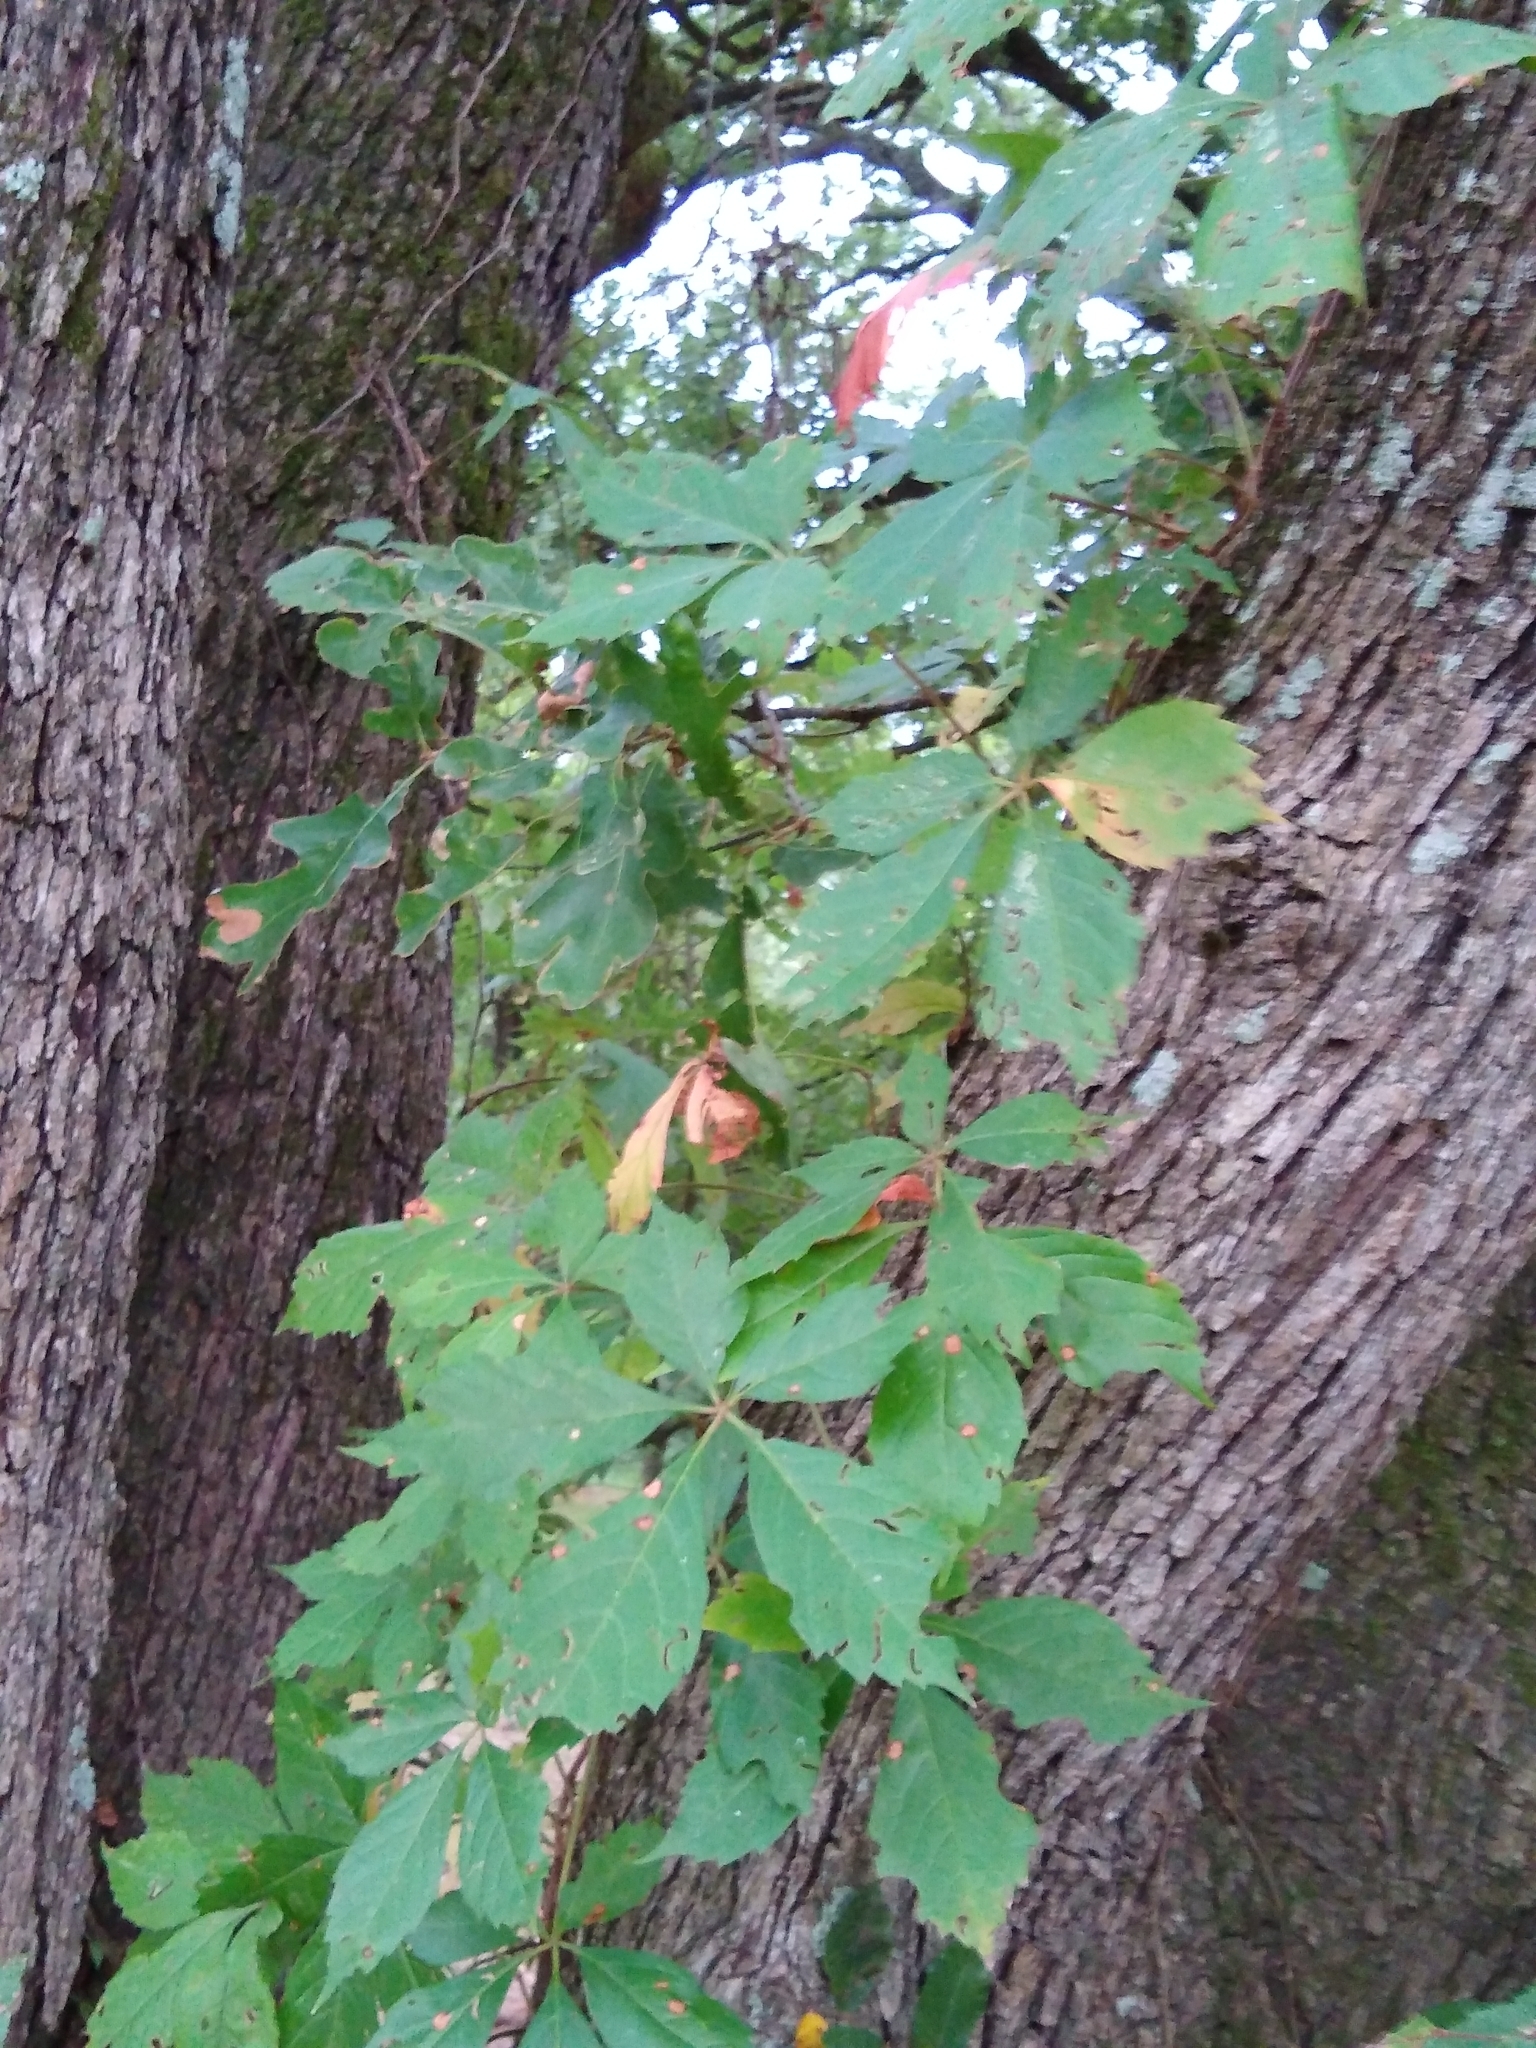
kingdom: Plantae
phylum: Tracheophyta
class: Magnoliopsida
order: Vitales
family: Vitaceae
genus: Parthenocissus
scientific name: Parthenocissus quinquefolia
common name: Virginia-creeper
